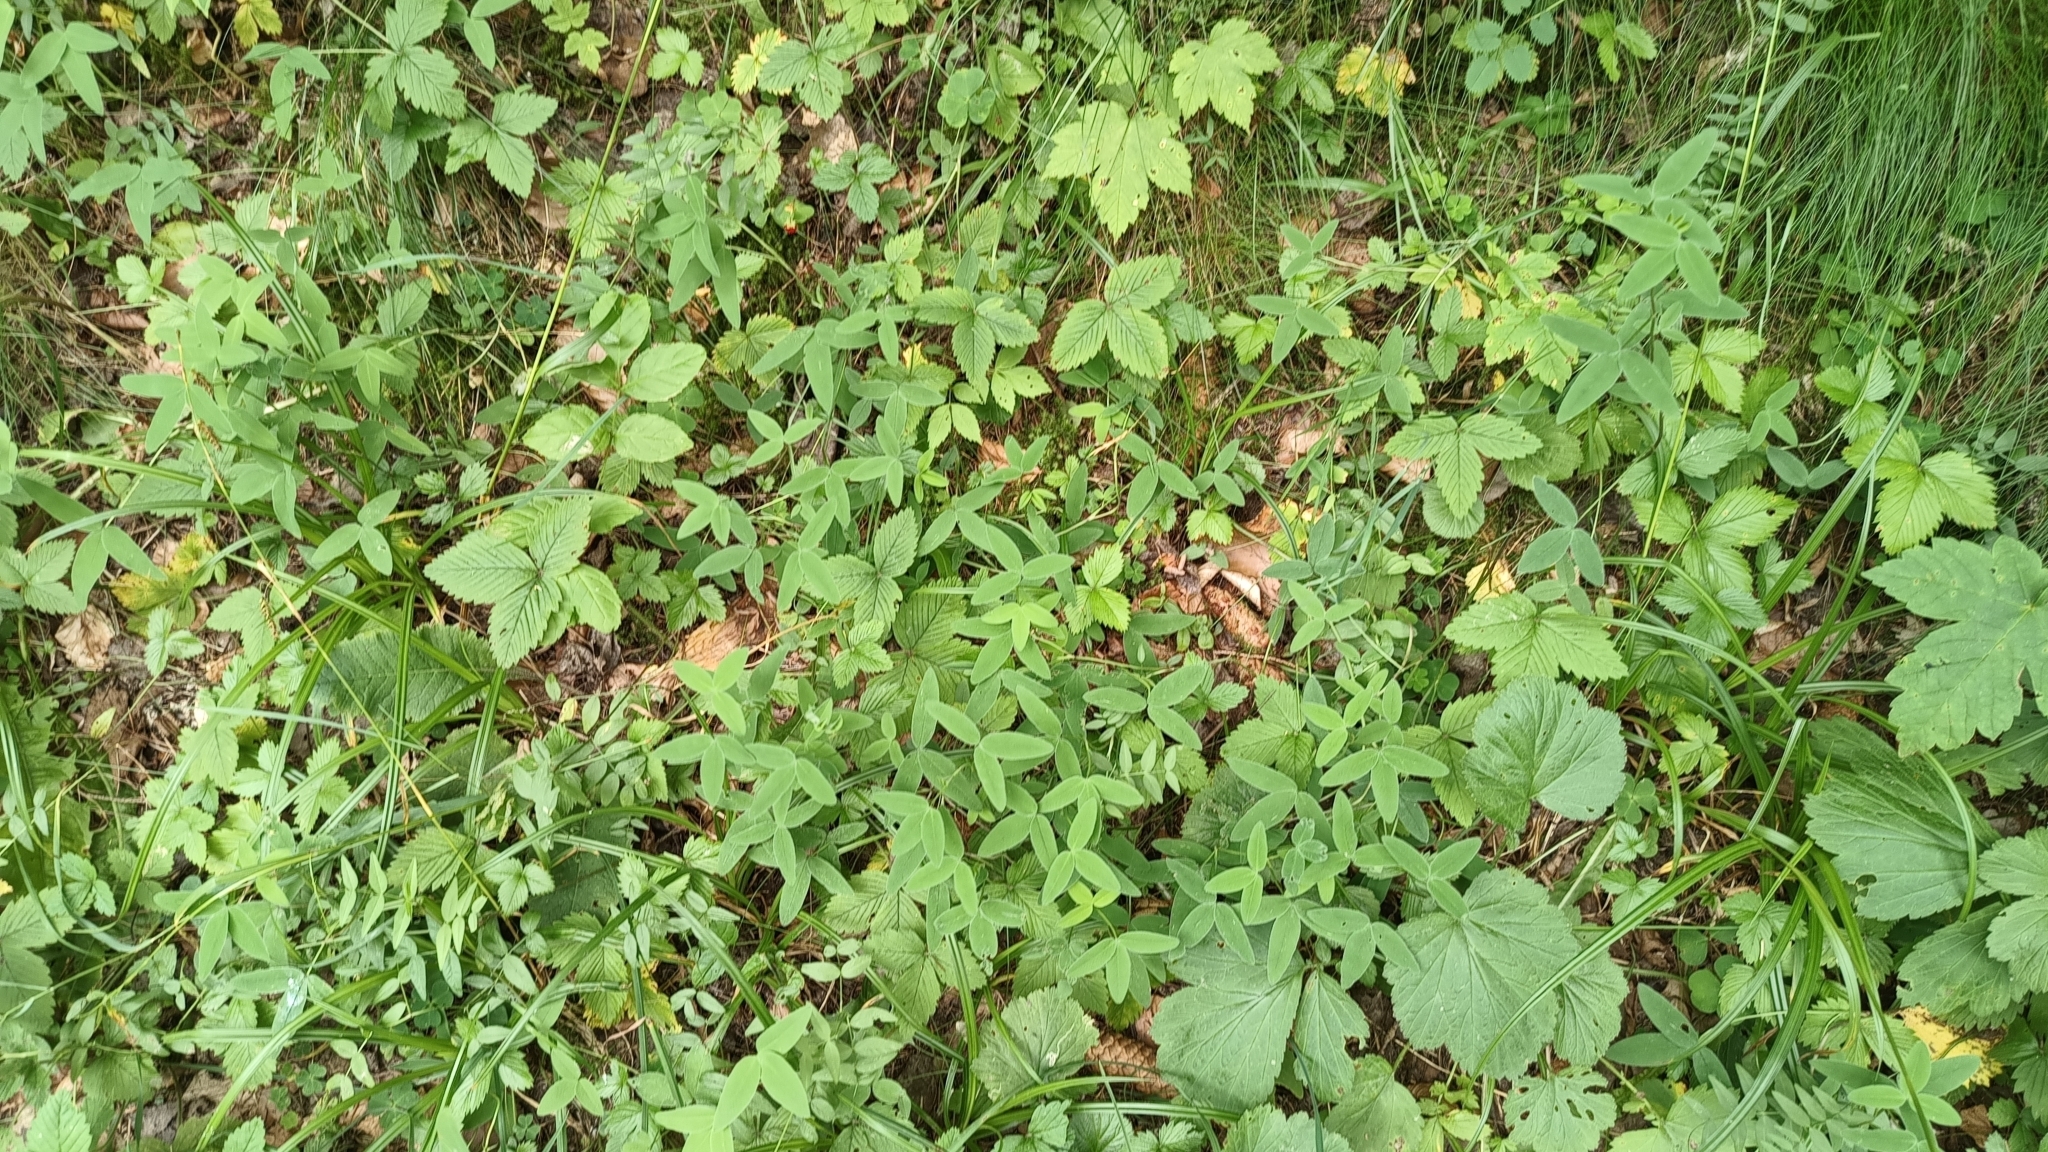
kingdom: Plantae
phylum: Tracheophyta
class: Magnoliopsida
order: Fabales
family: Fabaceae
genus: Trifolium
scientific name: Trifolium medium
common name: Zigzag clover
